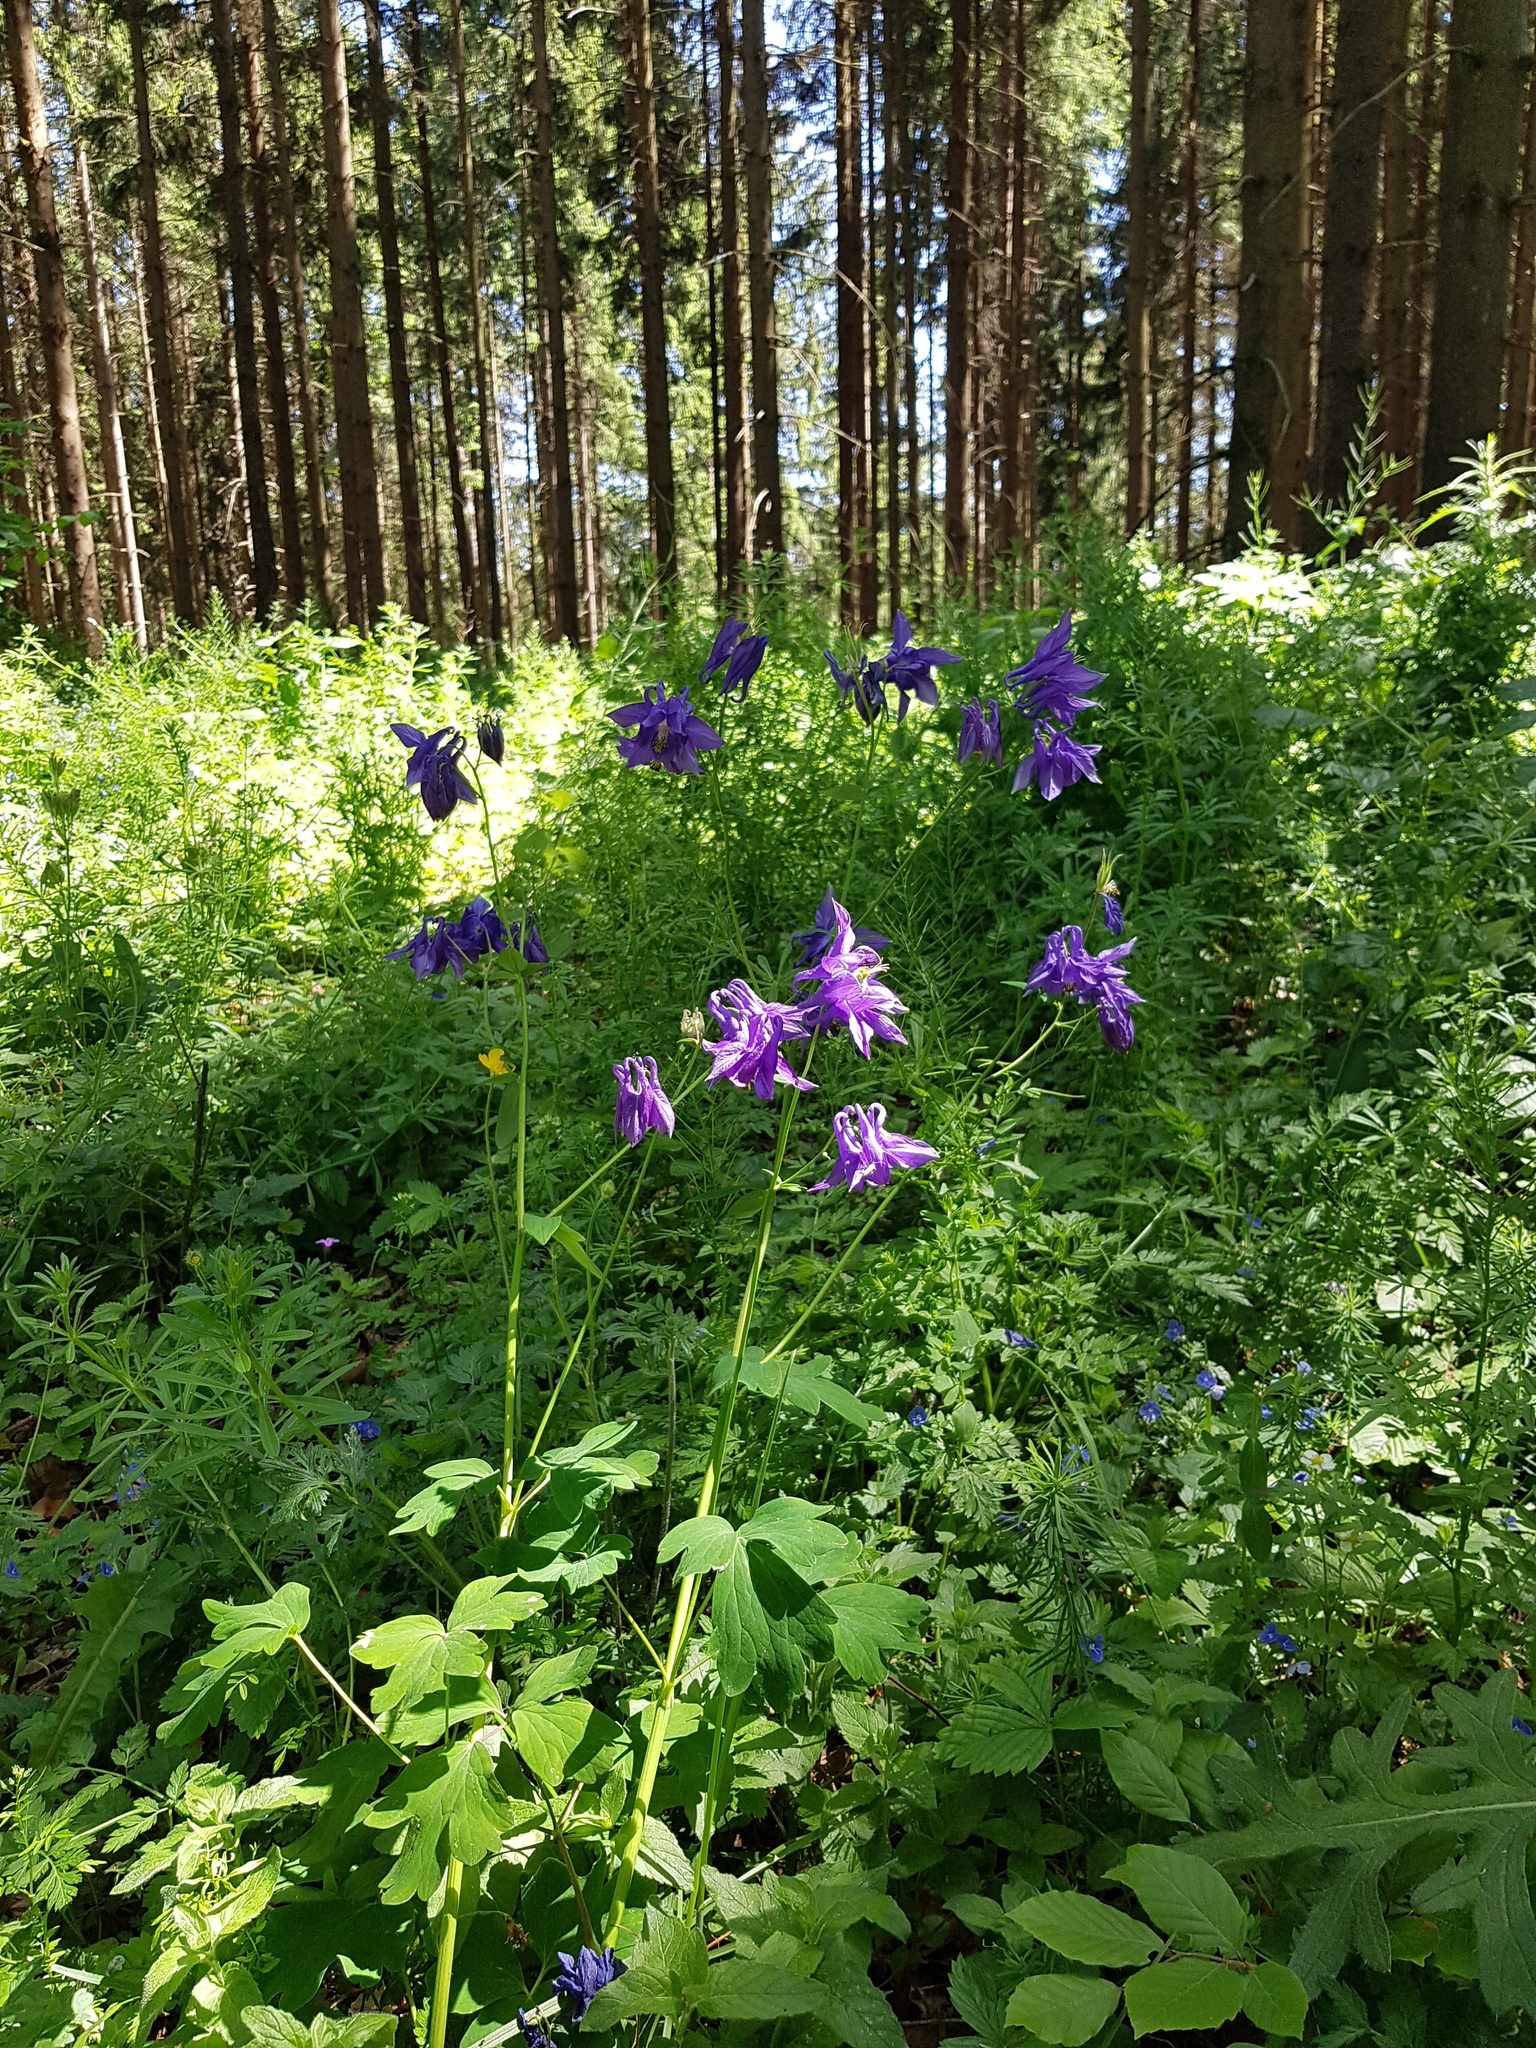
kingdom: Plantae
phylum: Tracheophyta
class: Magnoliopsida
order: Ranunculales
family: Ranunculaceae
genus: Aquilegia
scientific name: Aquilegia vulgaris
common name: Columbine
